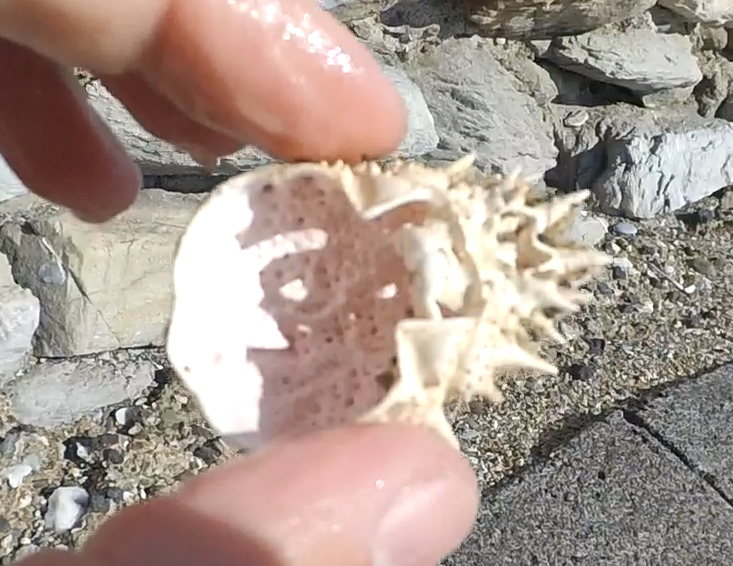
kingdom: Animalia
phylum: Arthropoda
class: Malacostraca
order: Decapoda
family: Majidae
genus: Maja
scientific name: Maja crispata
